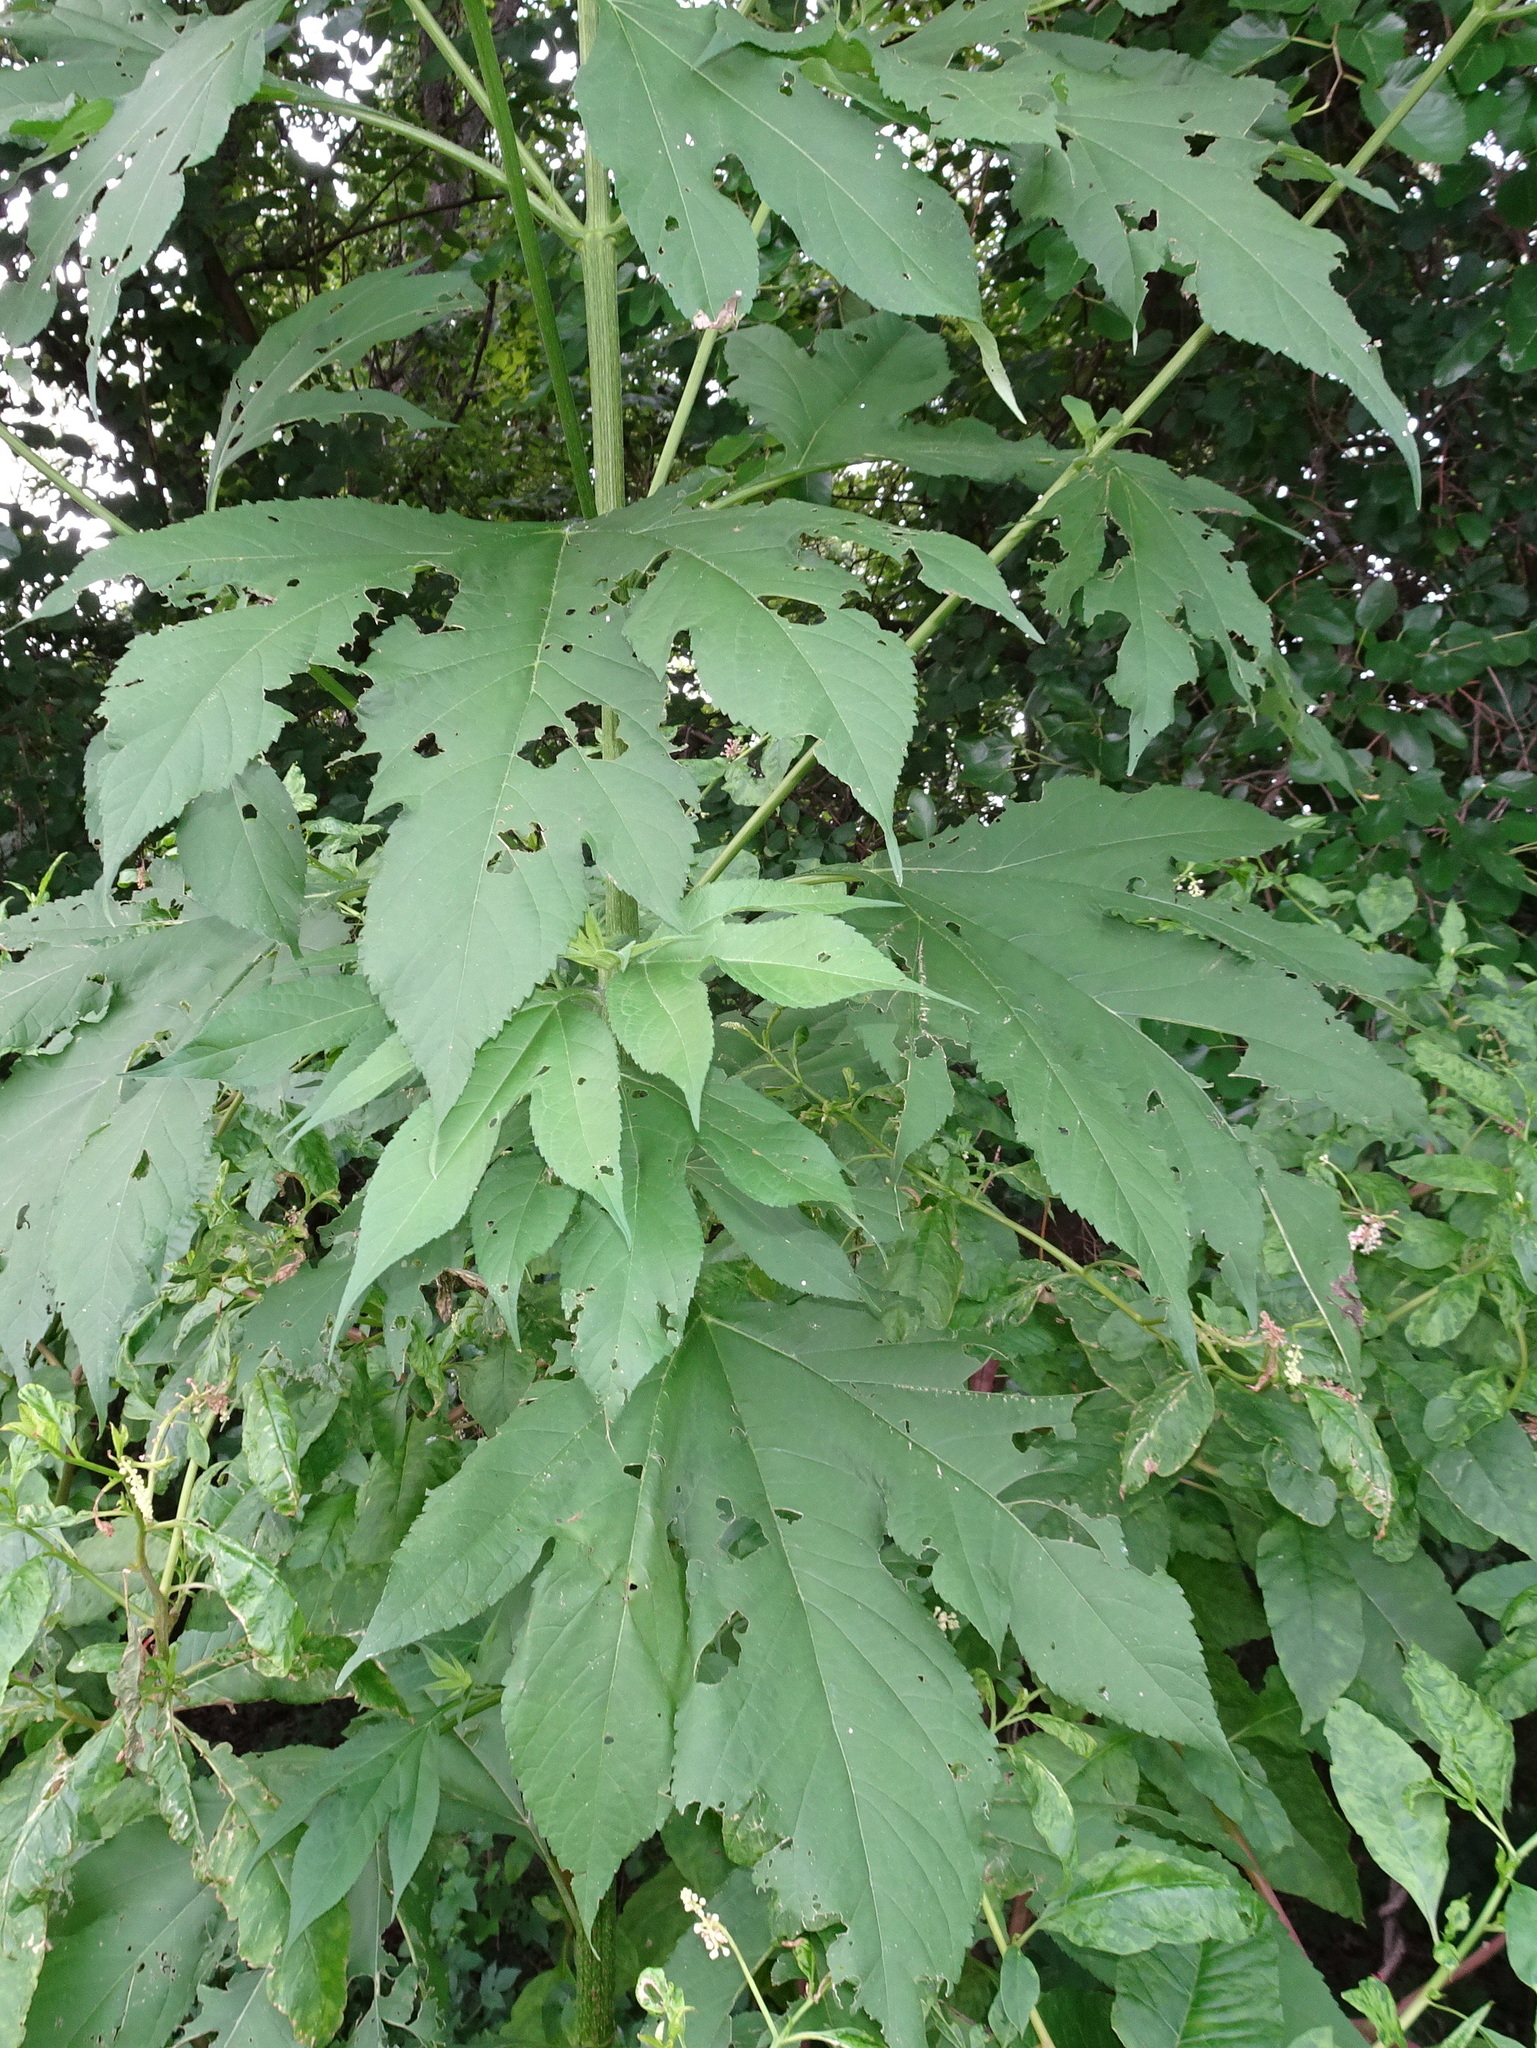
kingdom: Plantae
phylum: Tracheophyta
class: Magnoliopsida
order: Asterales
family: Asteraceae
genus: Ambrosia
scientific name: Ambrosia trifida
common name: Giant ragweed
